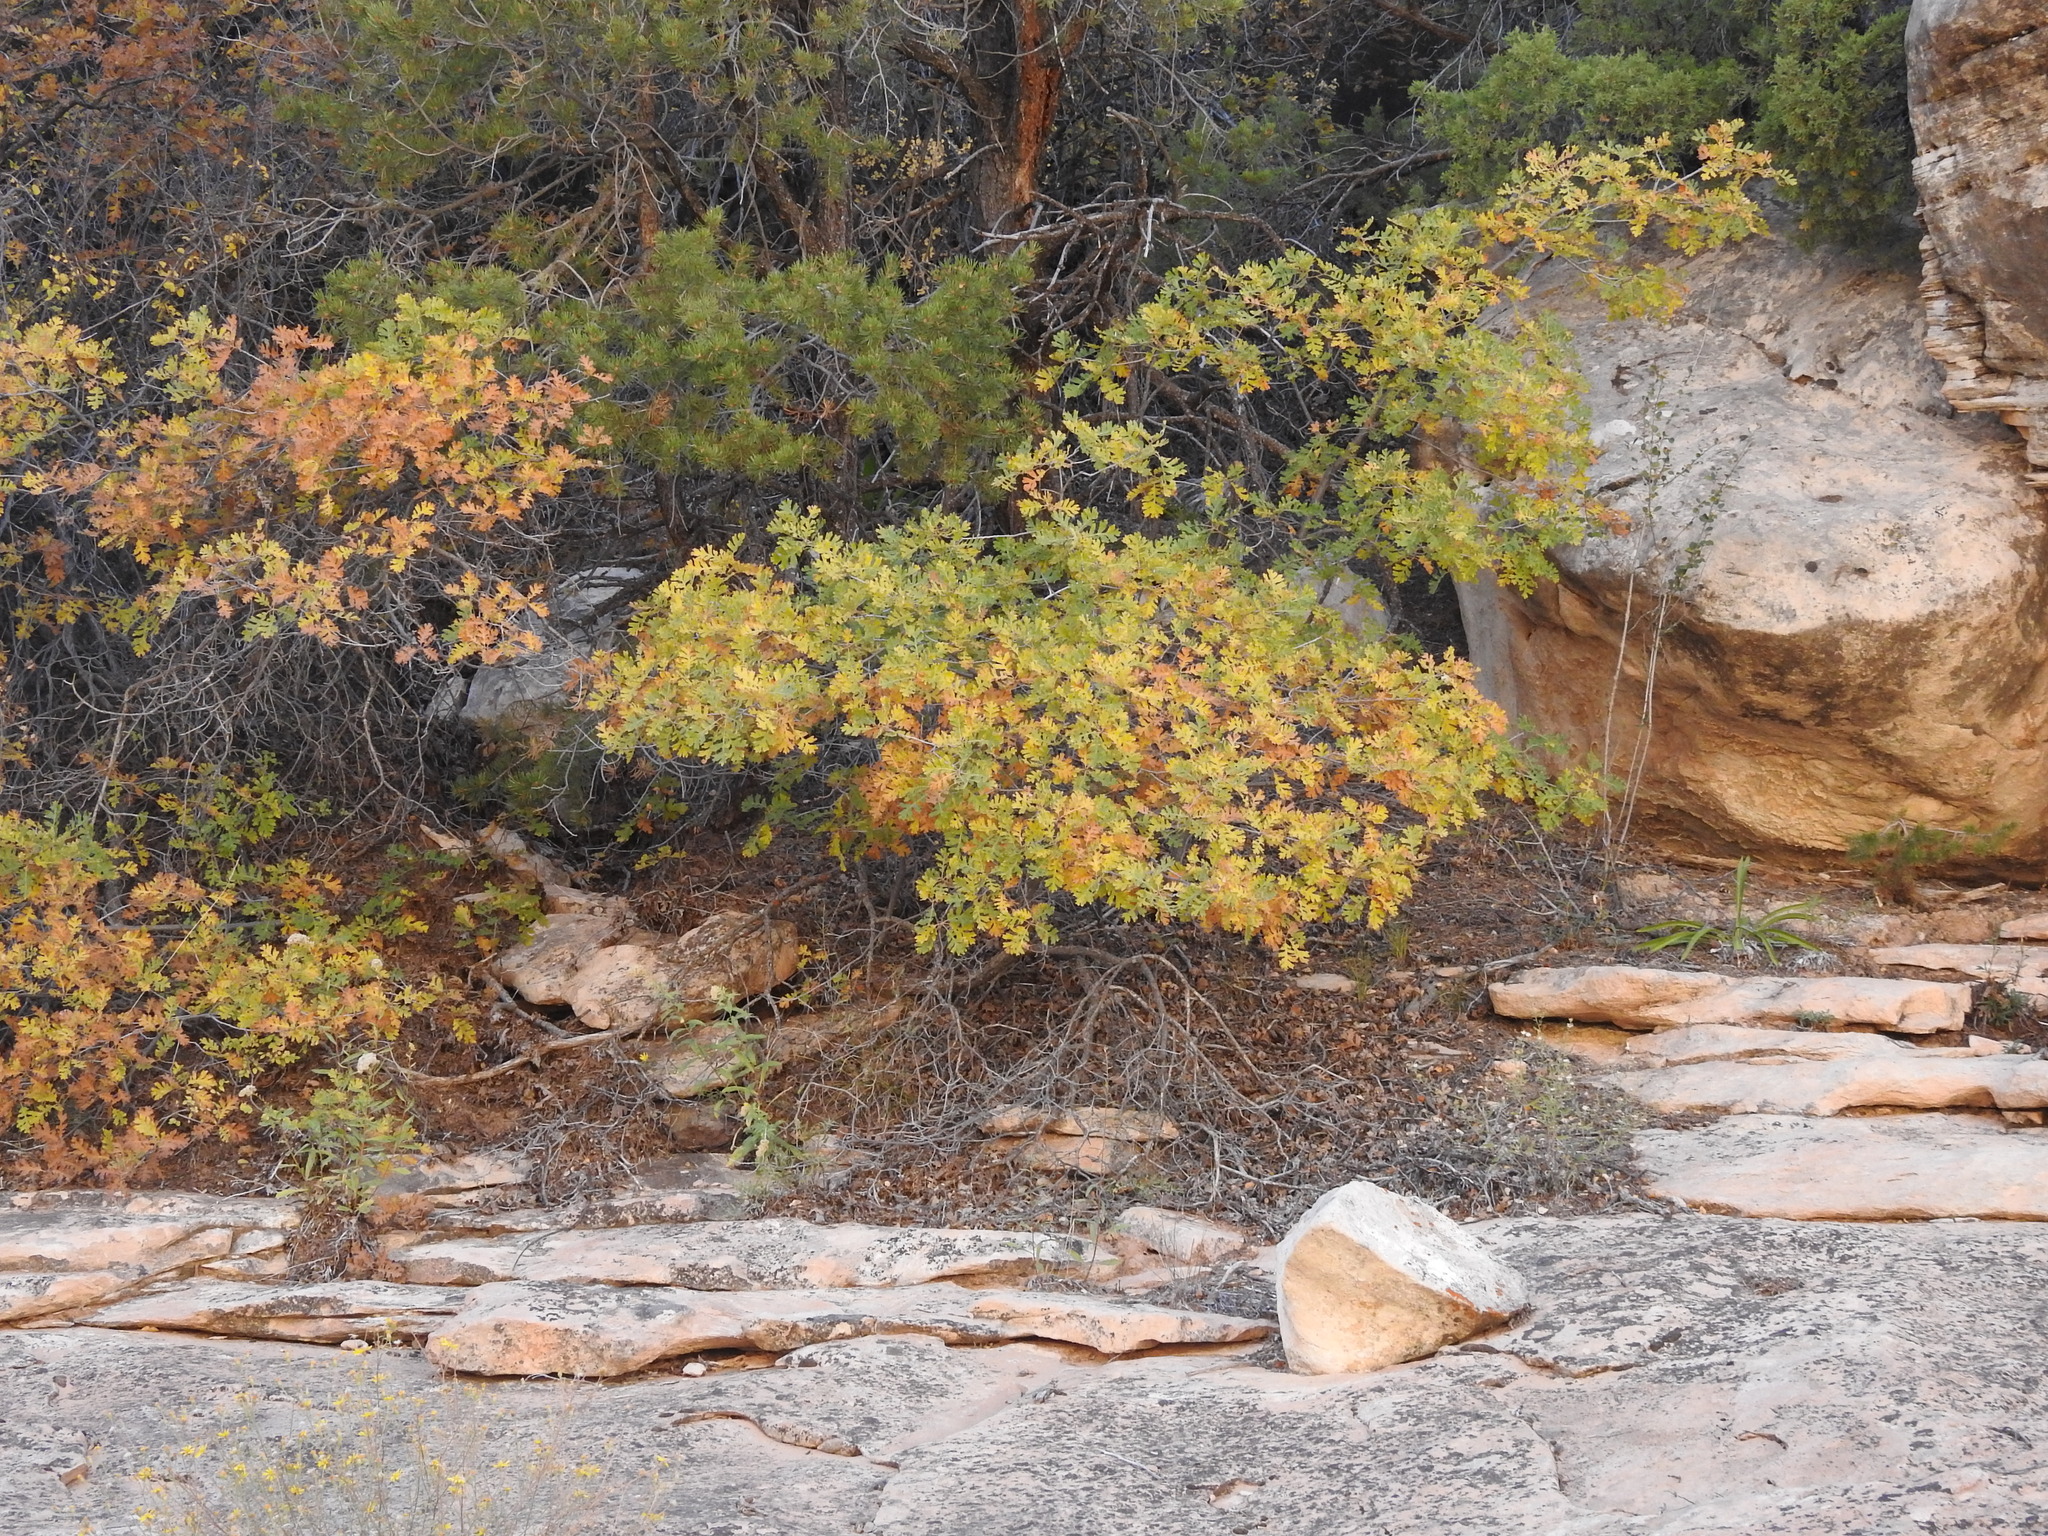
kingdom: Plantae
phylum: Tracheophyta
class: Magnoliopsida
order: Fagales
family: Fagaceae
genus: Quercus
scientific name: Quercus gambelii
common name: Gambel oak
